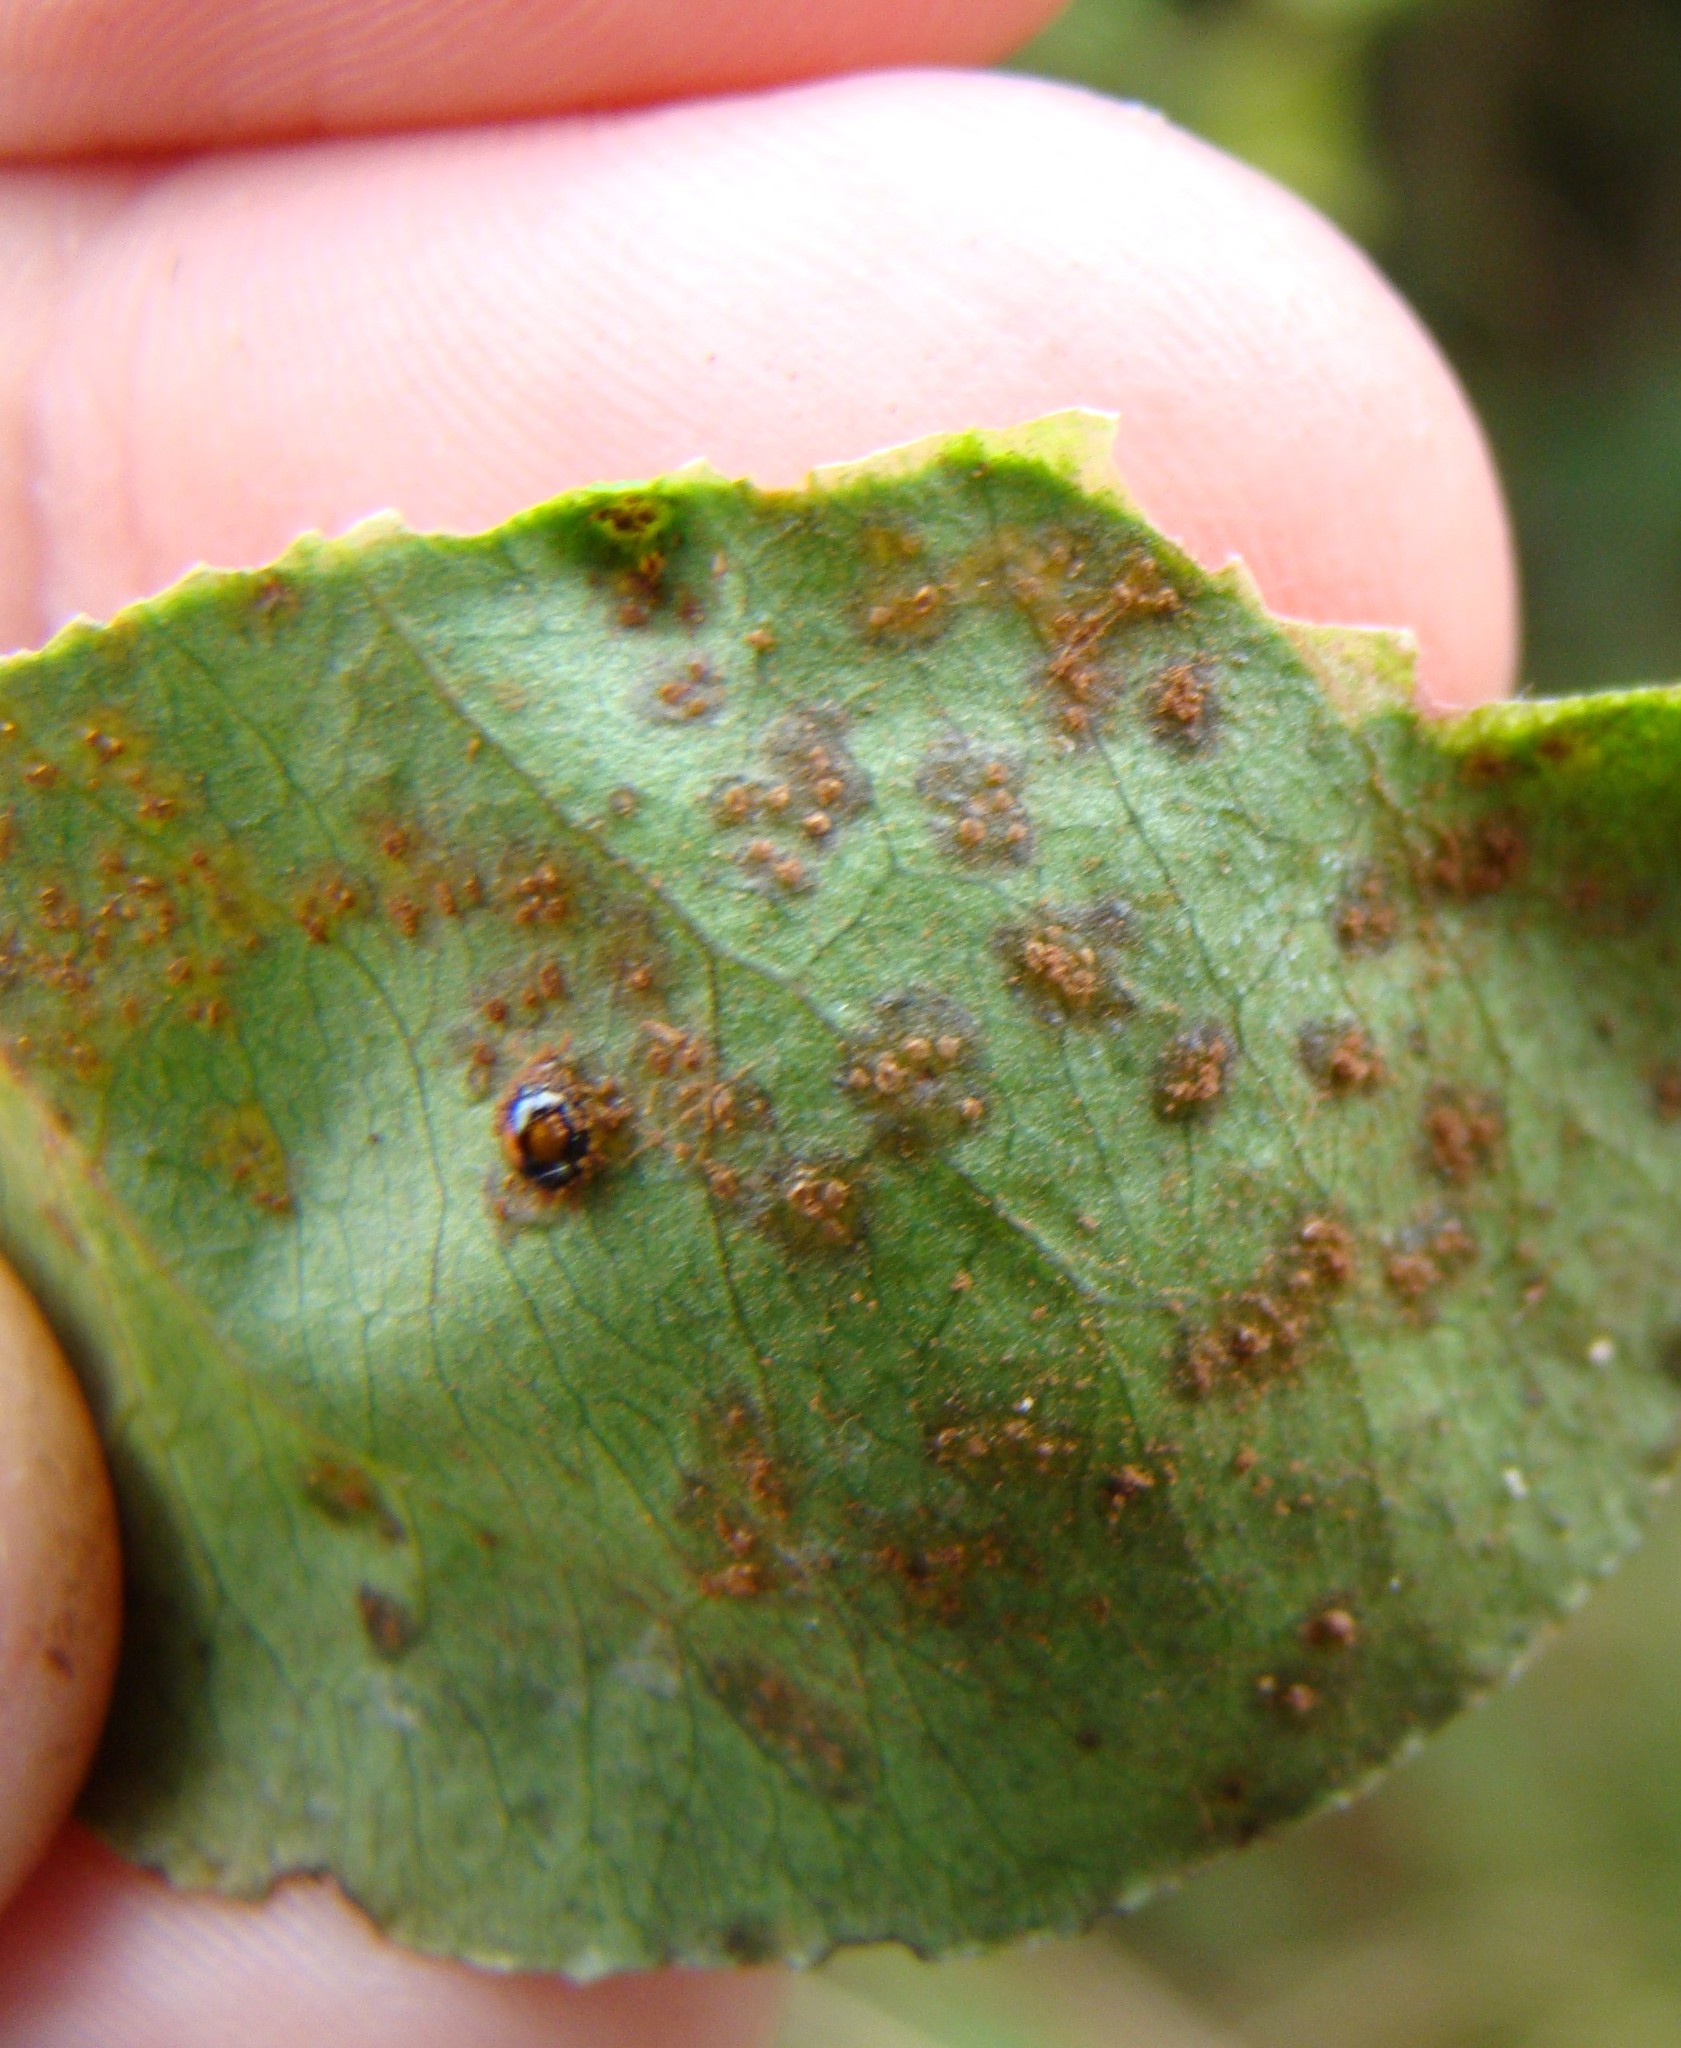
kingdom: Animalia
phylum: Arthropoda
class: Insecta
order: Coleoptera
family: Coccinellidae
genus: Serangium
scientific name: Serangium maculigerum
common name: Lady beetle
